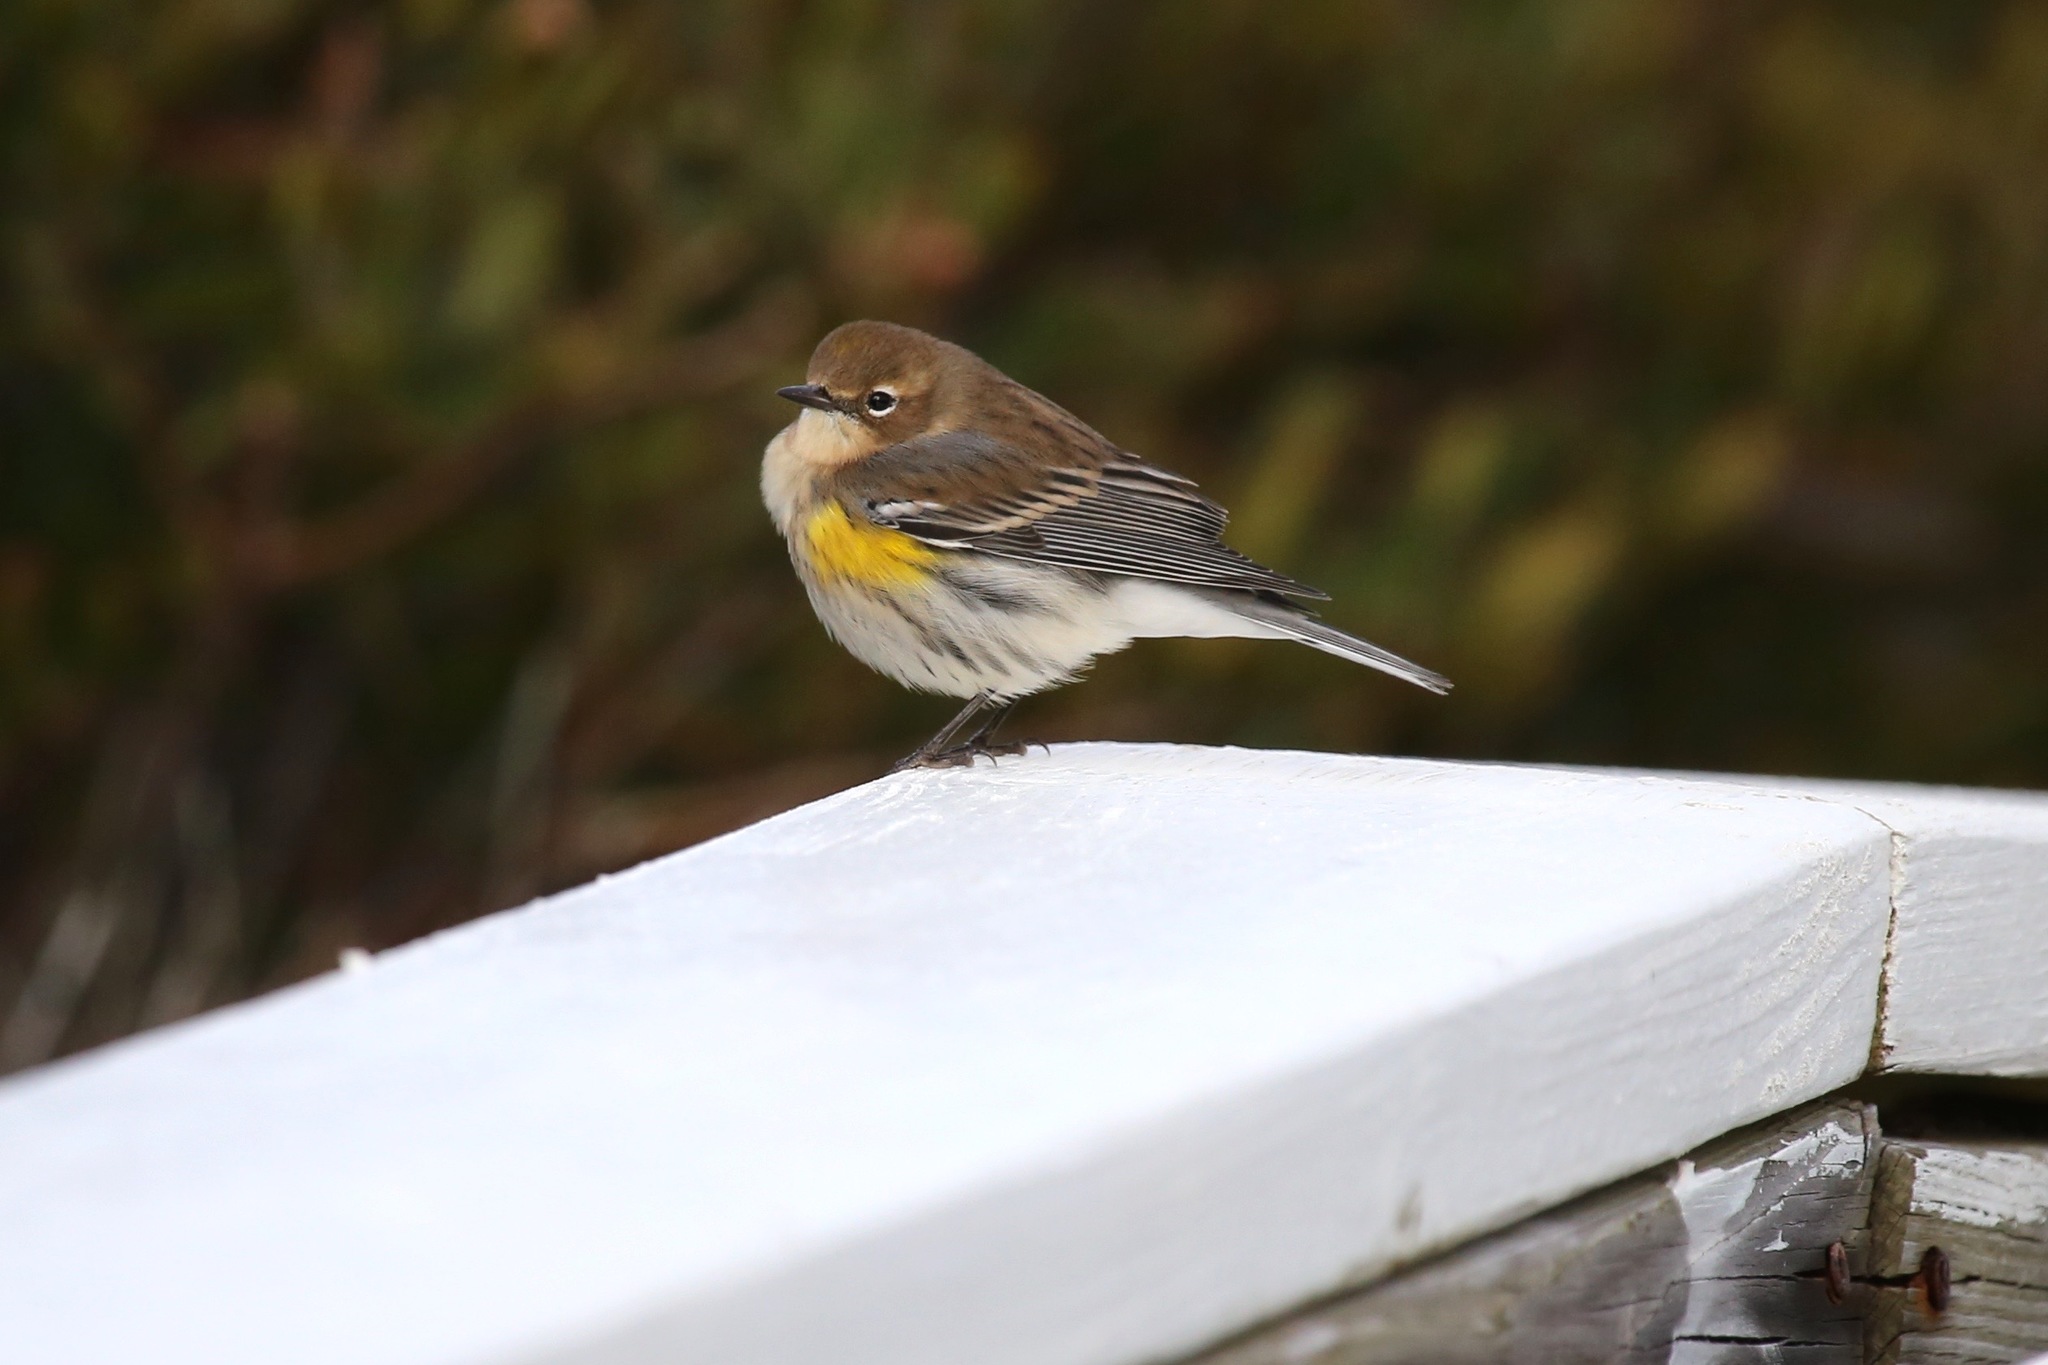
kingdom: Animalia
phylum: Chordata
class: Aves
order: Passeriformes
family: Parulidae
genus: Setophaga
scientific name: Setophaga coronata
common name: Myrtle warbler
